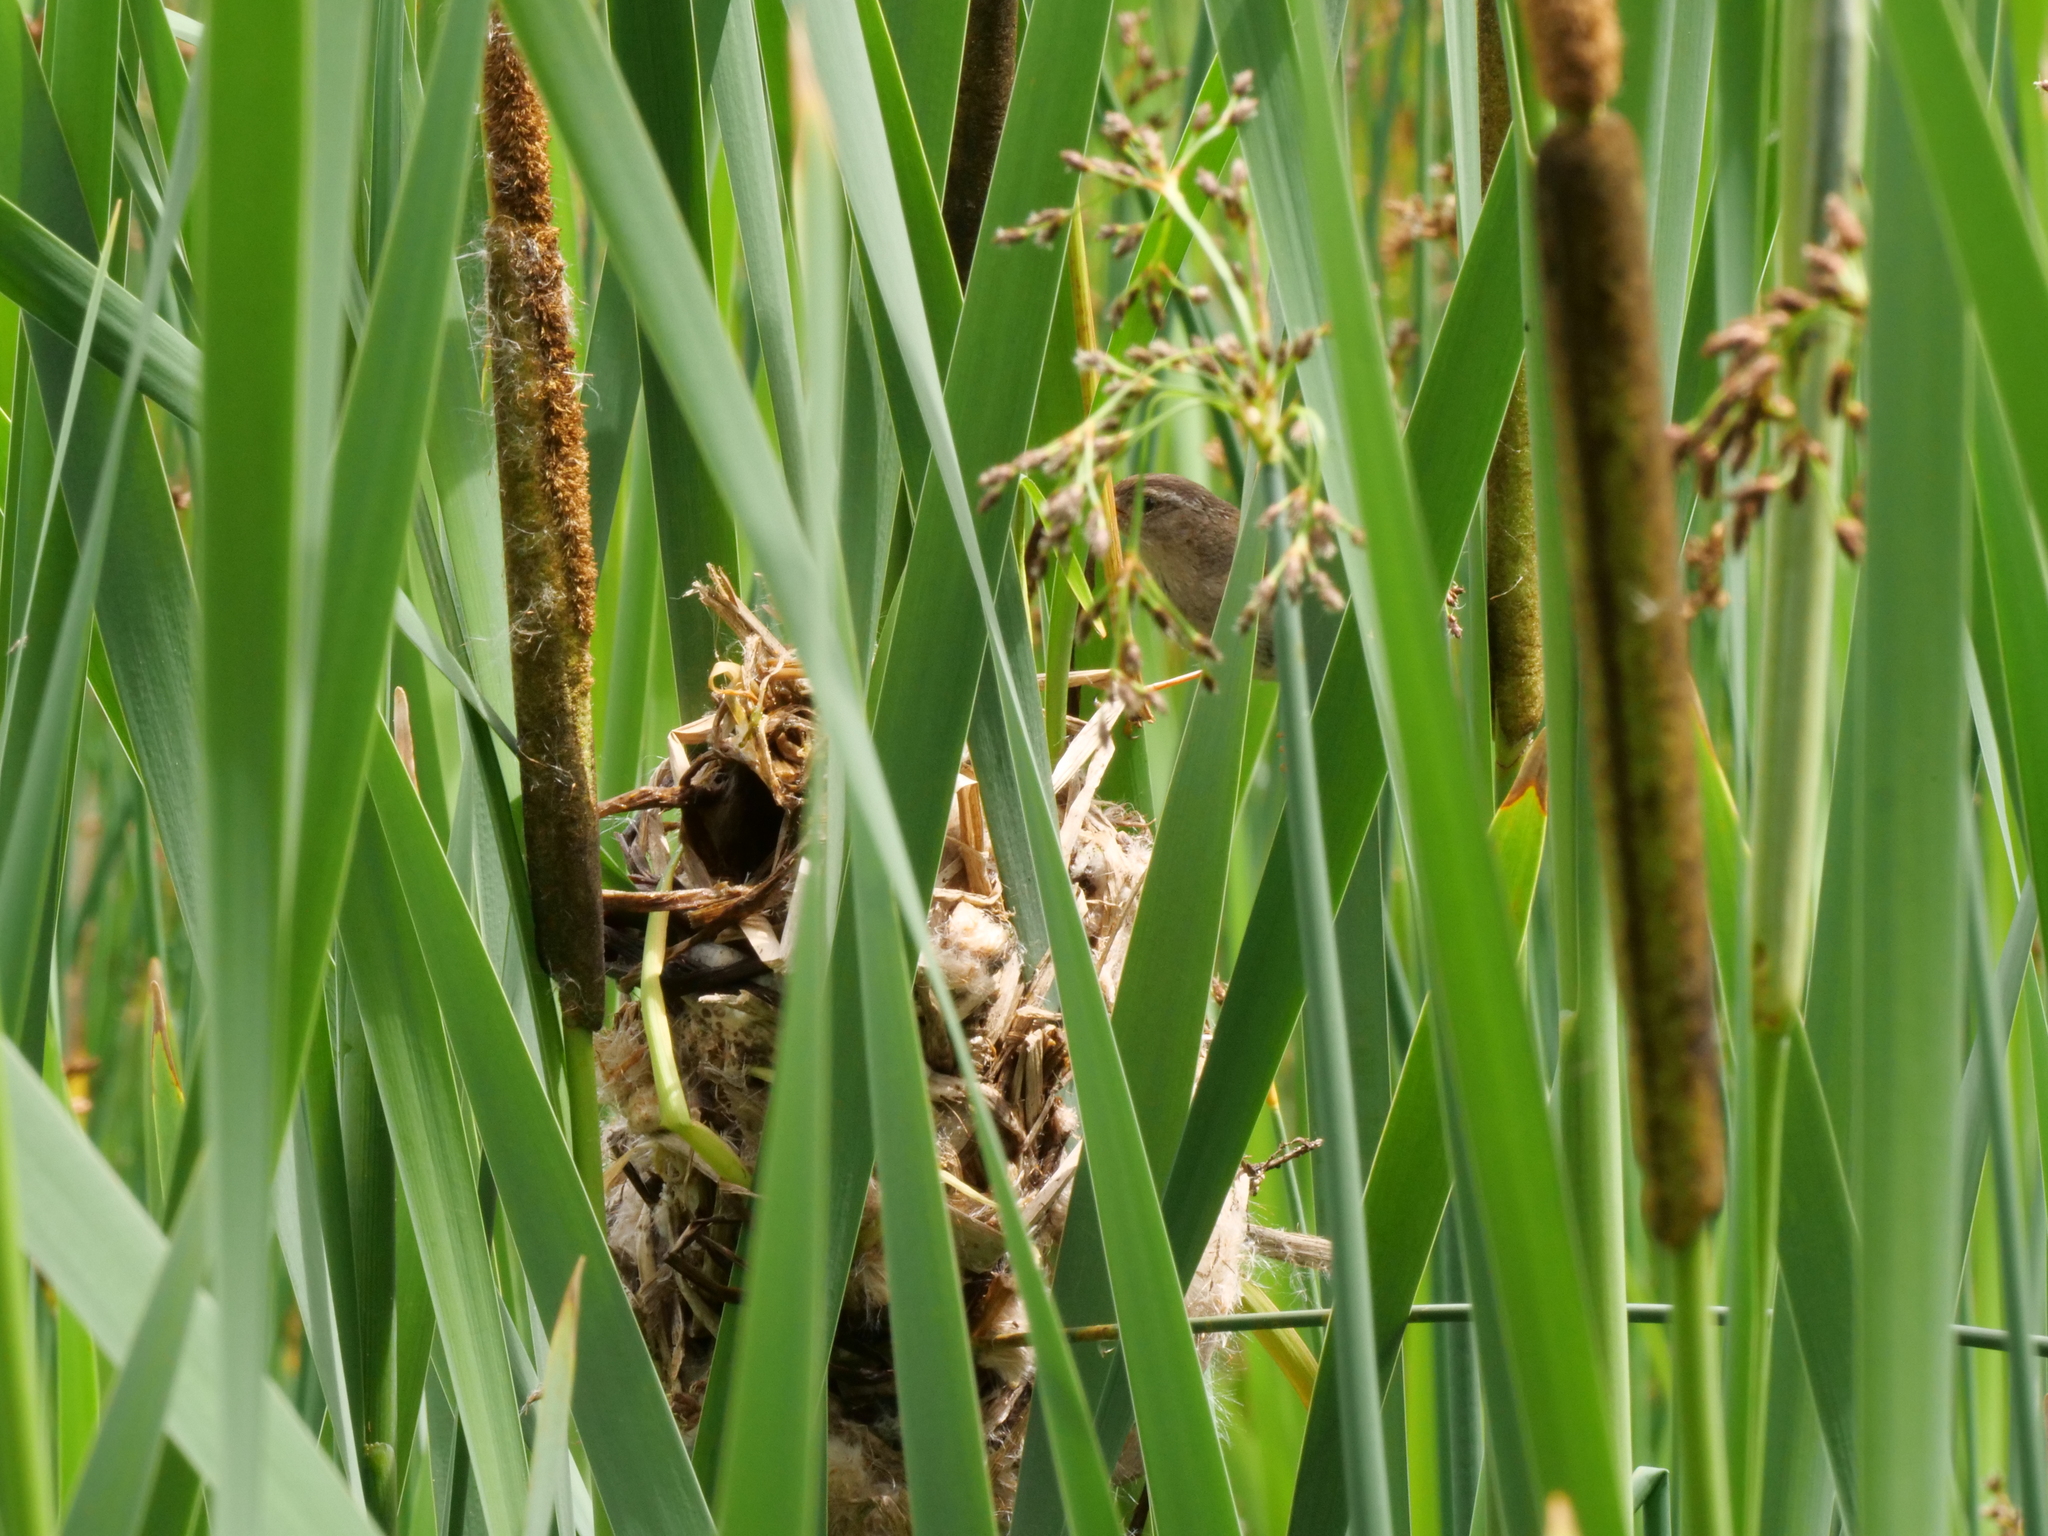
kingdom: Animalia
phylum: Chordata
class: Aves
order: Passeriformes
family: Troglodytidae
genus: Cistothorus
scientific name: Cistothorus palustris
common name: Marsh wren
